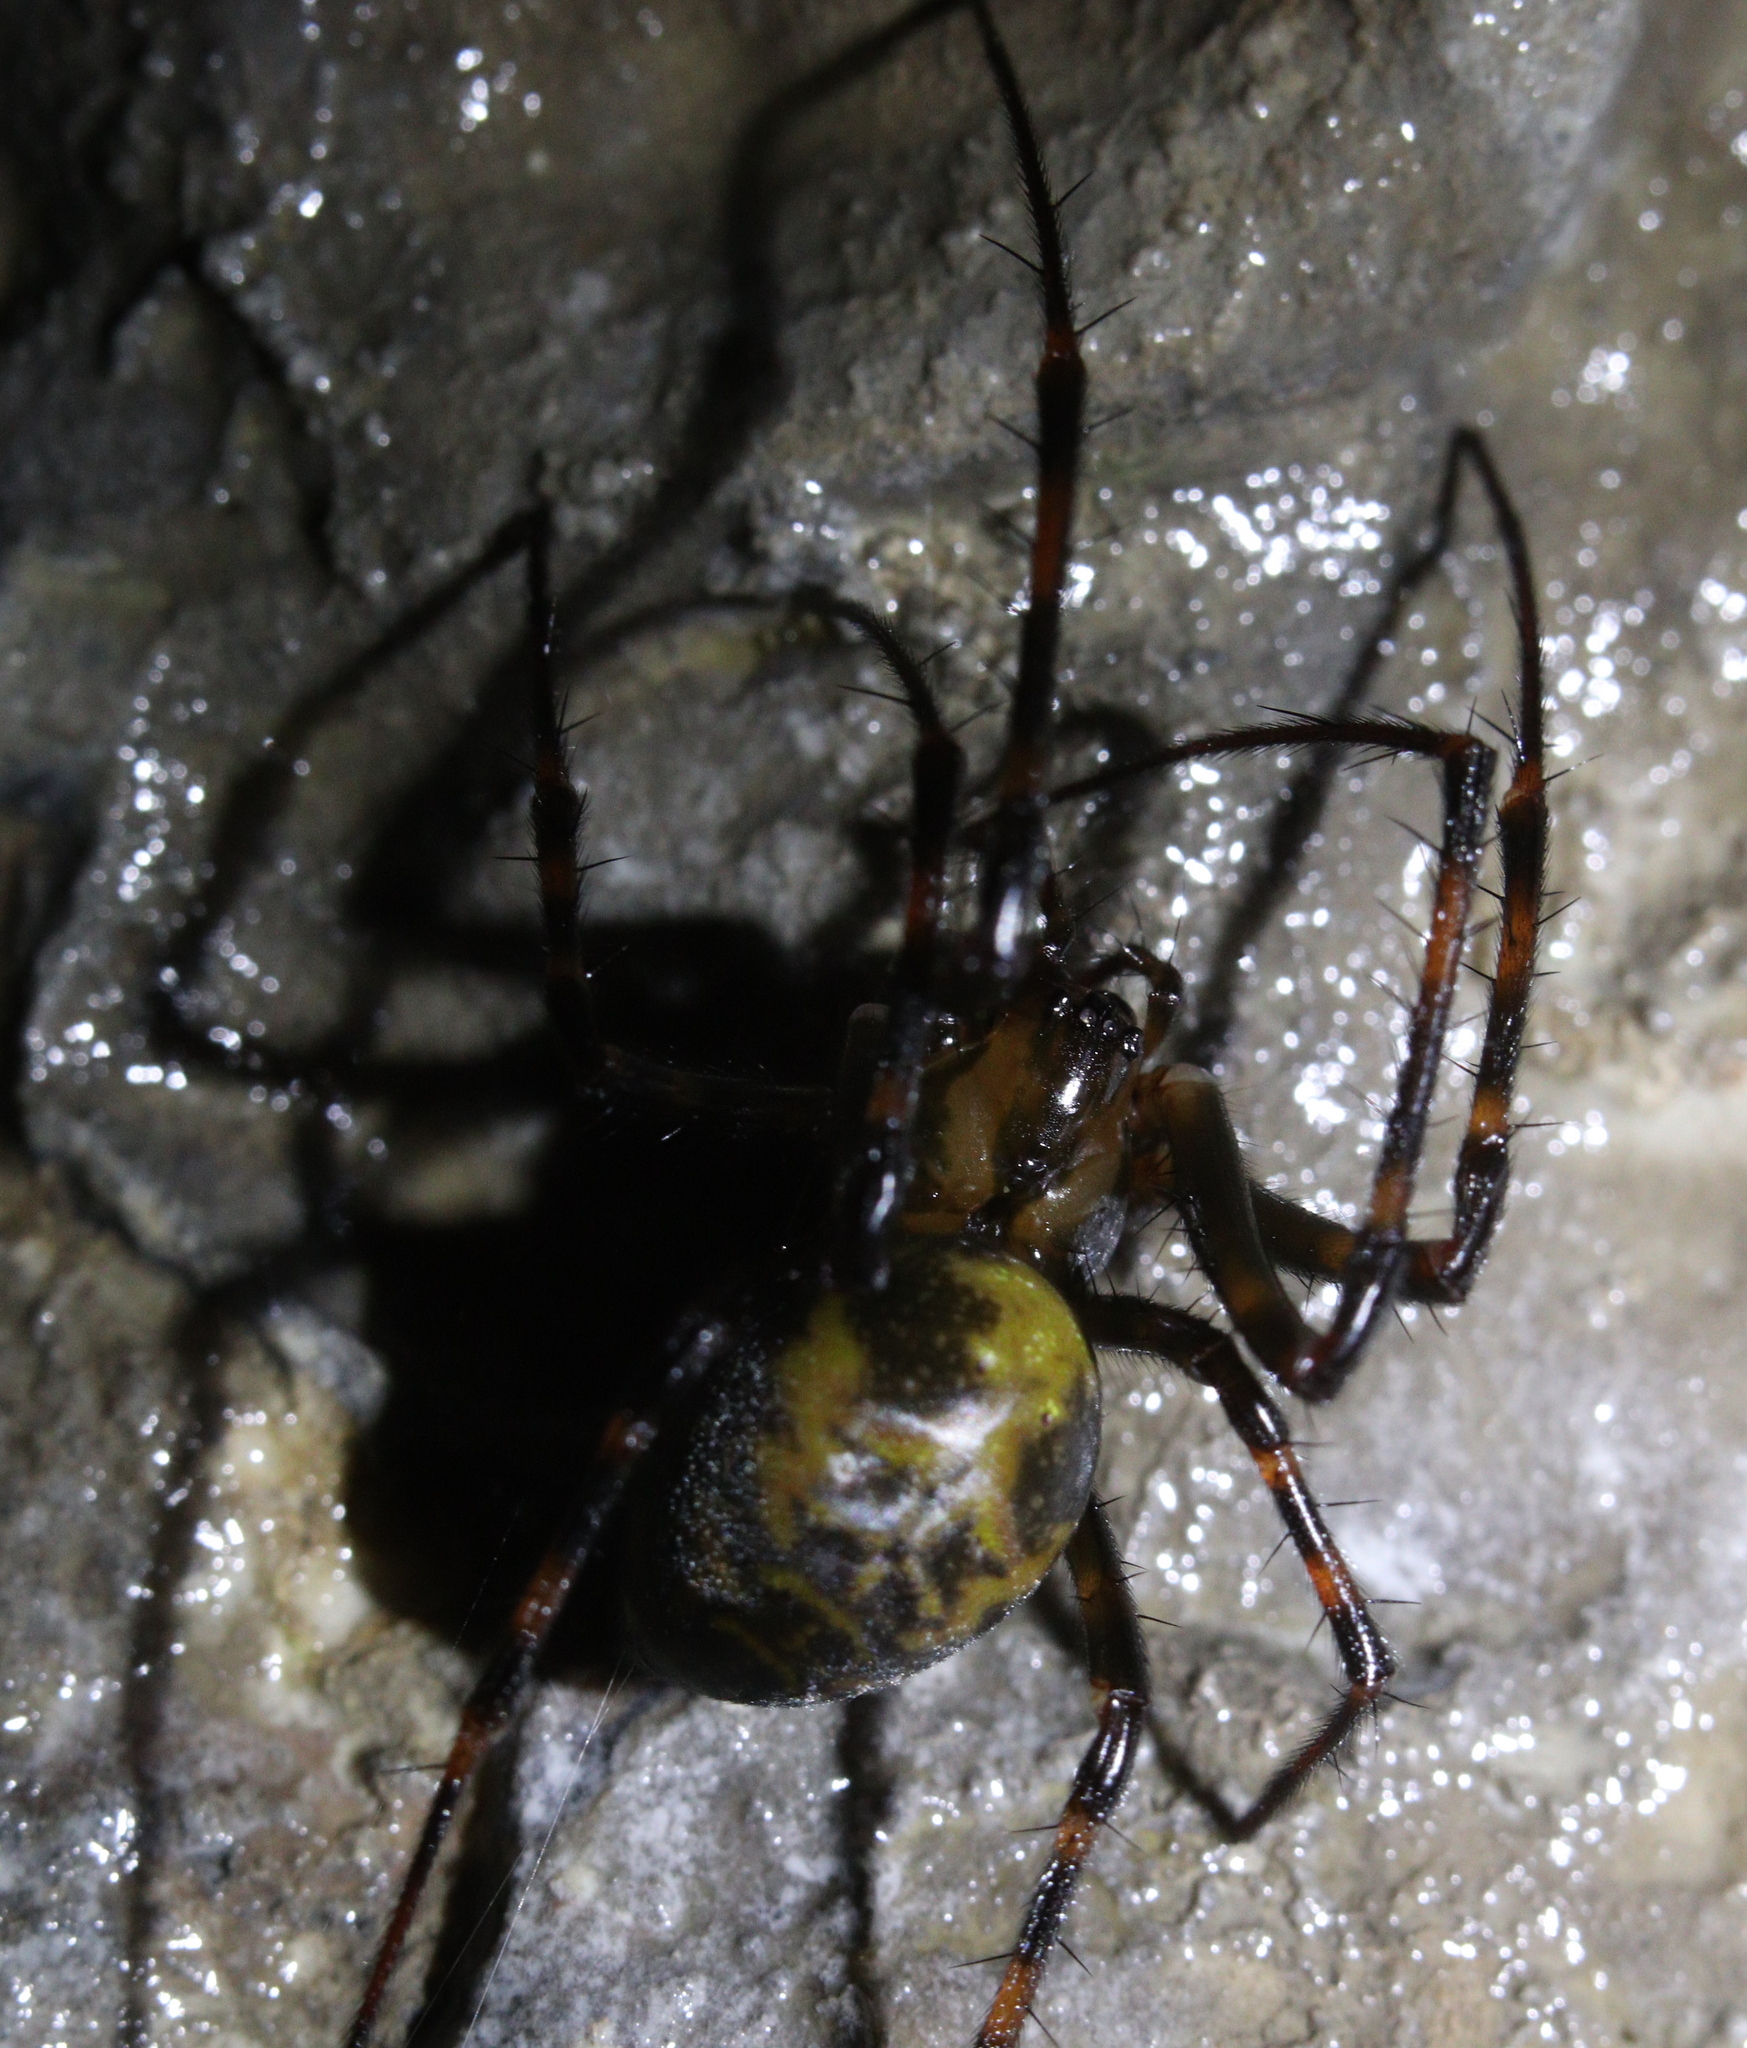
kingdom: Animalia
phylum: Arthropoda
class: Arachnida
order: Araneae
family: Tetragnathidae
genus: Meta
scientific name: Meta menardi
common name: Cave spider
